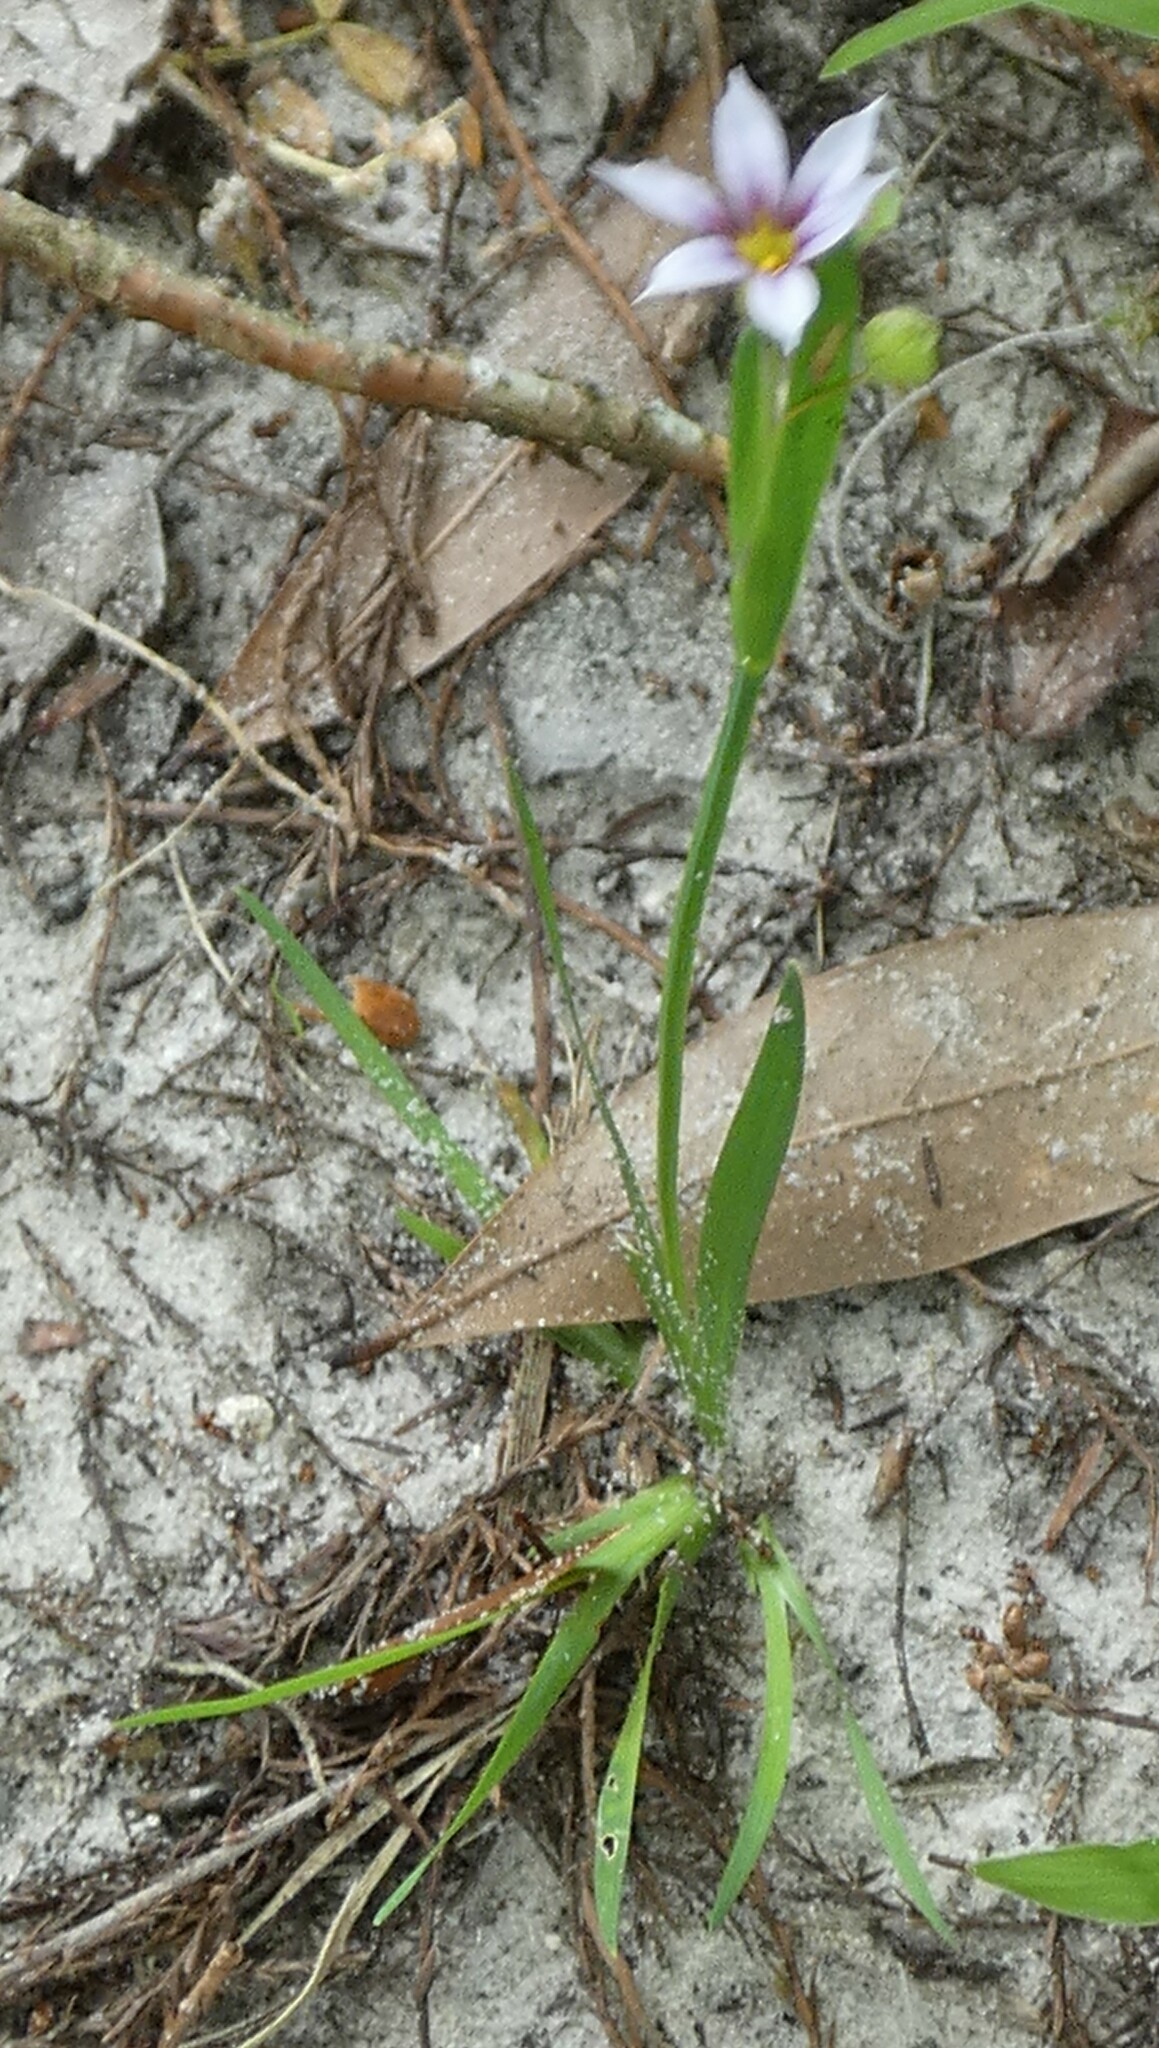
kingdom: Plantae
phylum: Tracheophyta
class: Liliopsida
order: Asparagales
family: Iridaceae
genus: Sisyrinchium
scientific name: Sisyrinchium micranthum
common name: Bermuda pigroot
